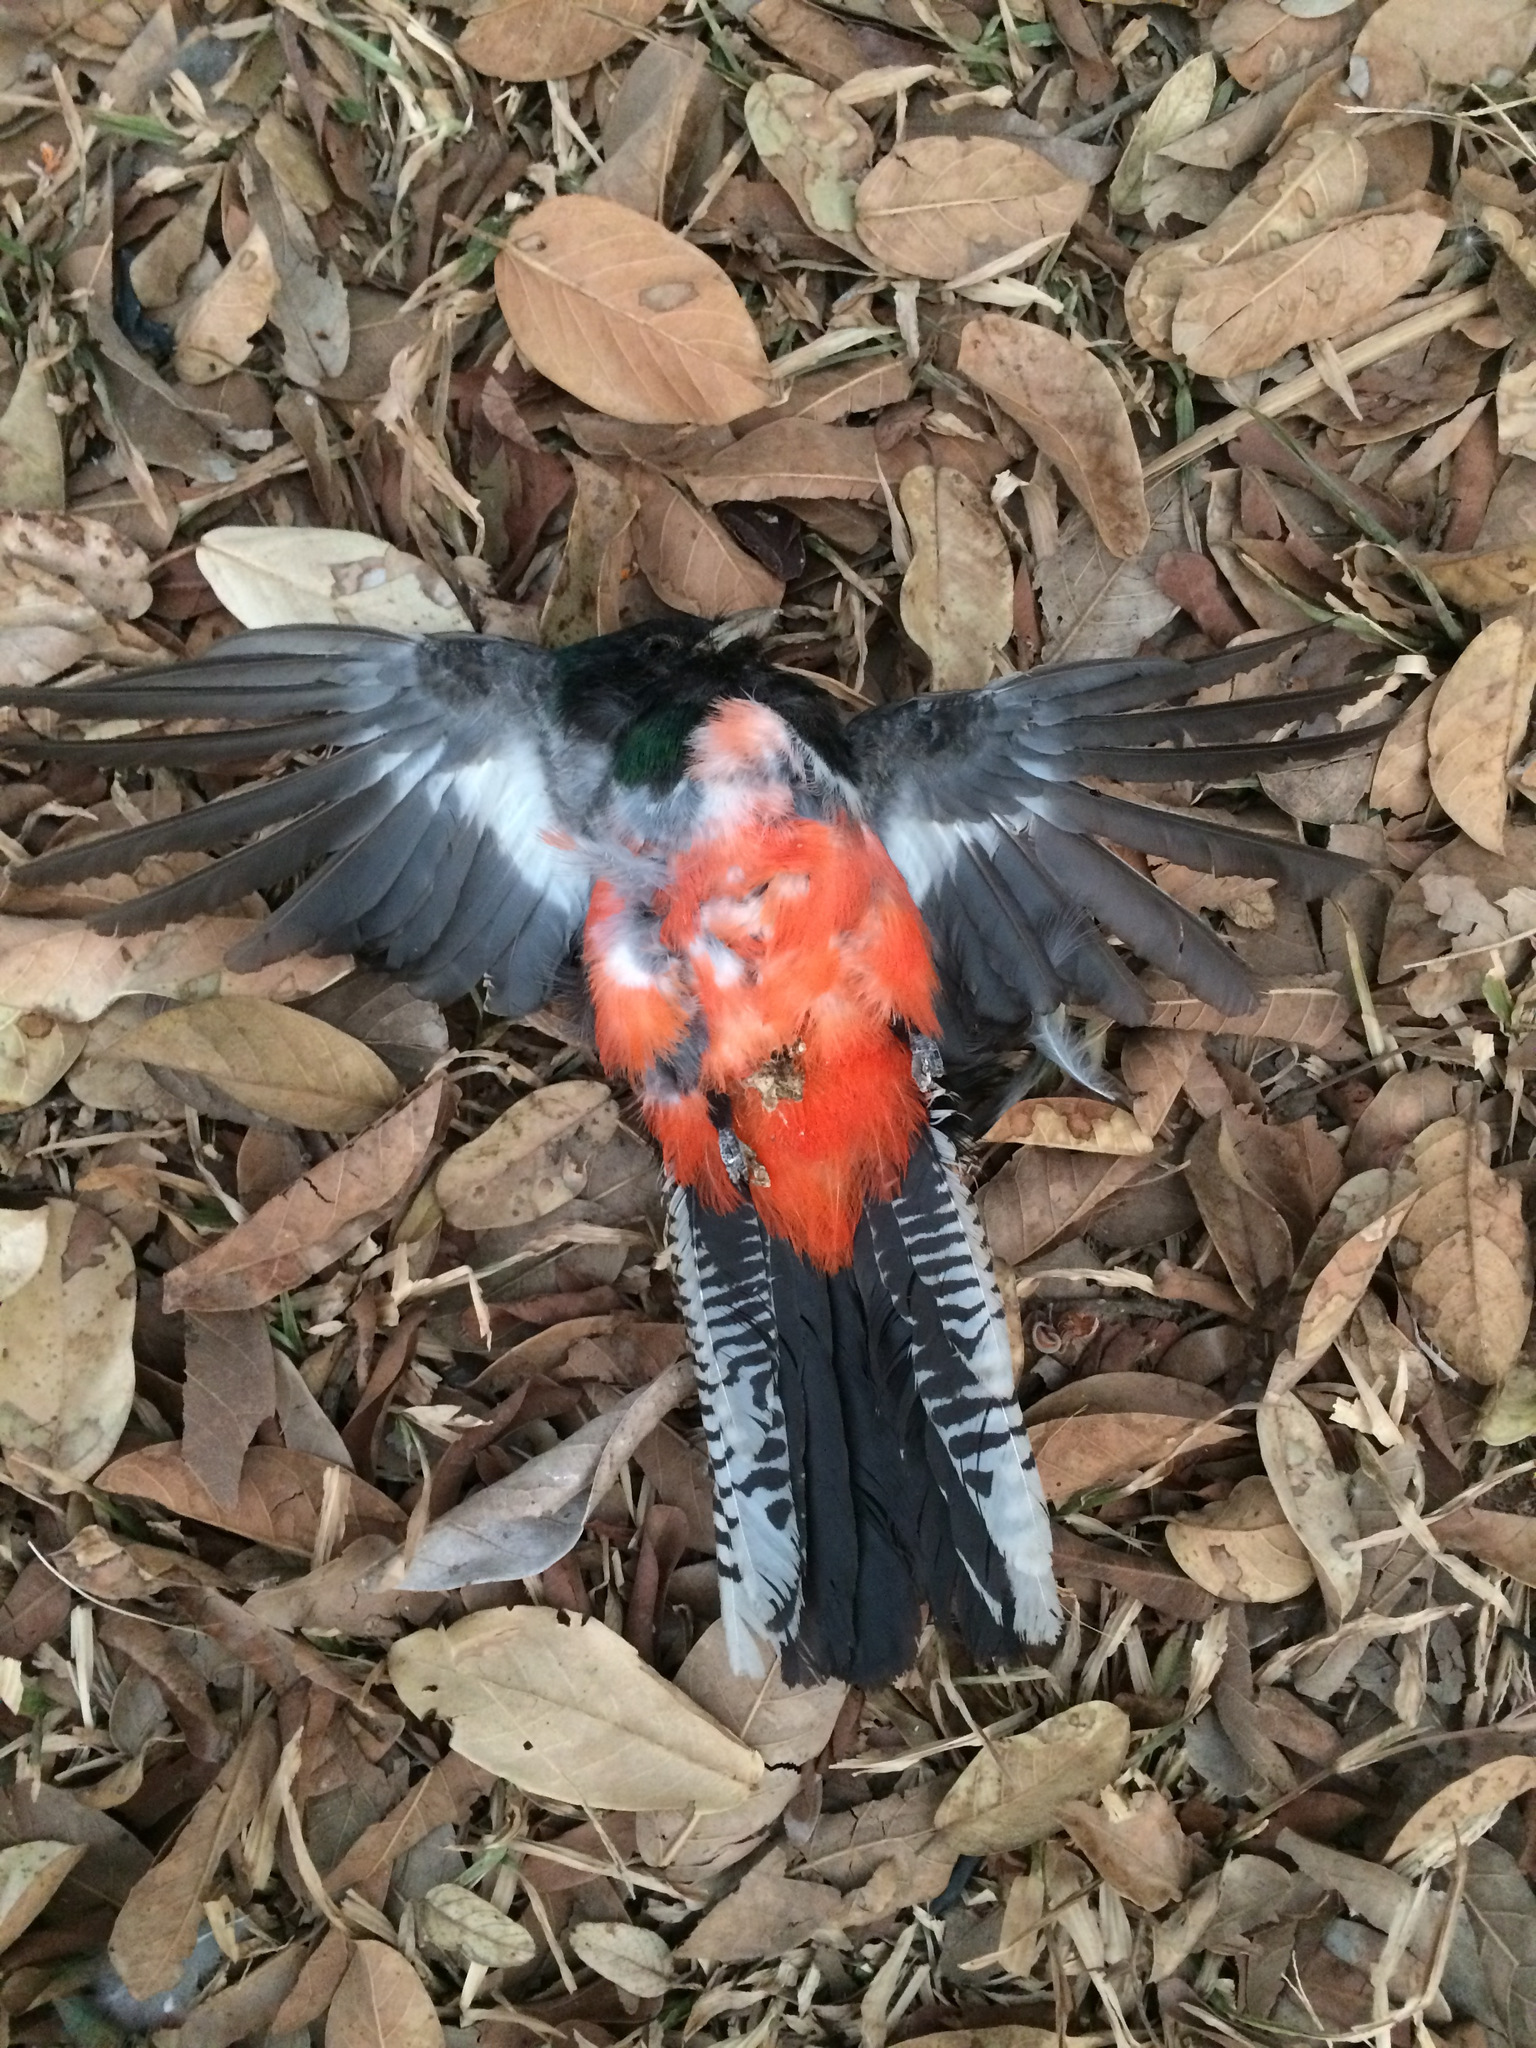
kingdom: Animalia
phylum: Chordata
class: Aves
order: Trogoniformes
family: Trogonidae
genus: Trogon
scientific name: Trogon curucui
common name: Blue-crowned trogon
